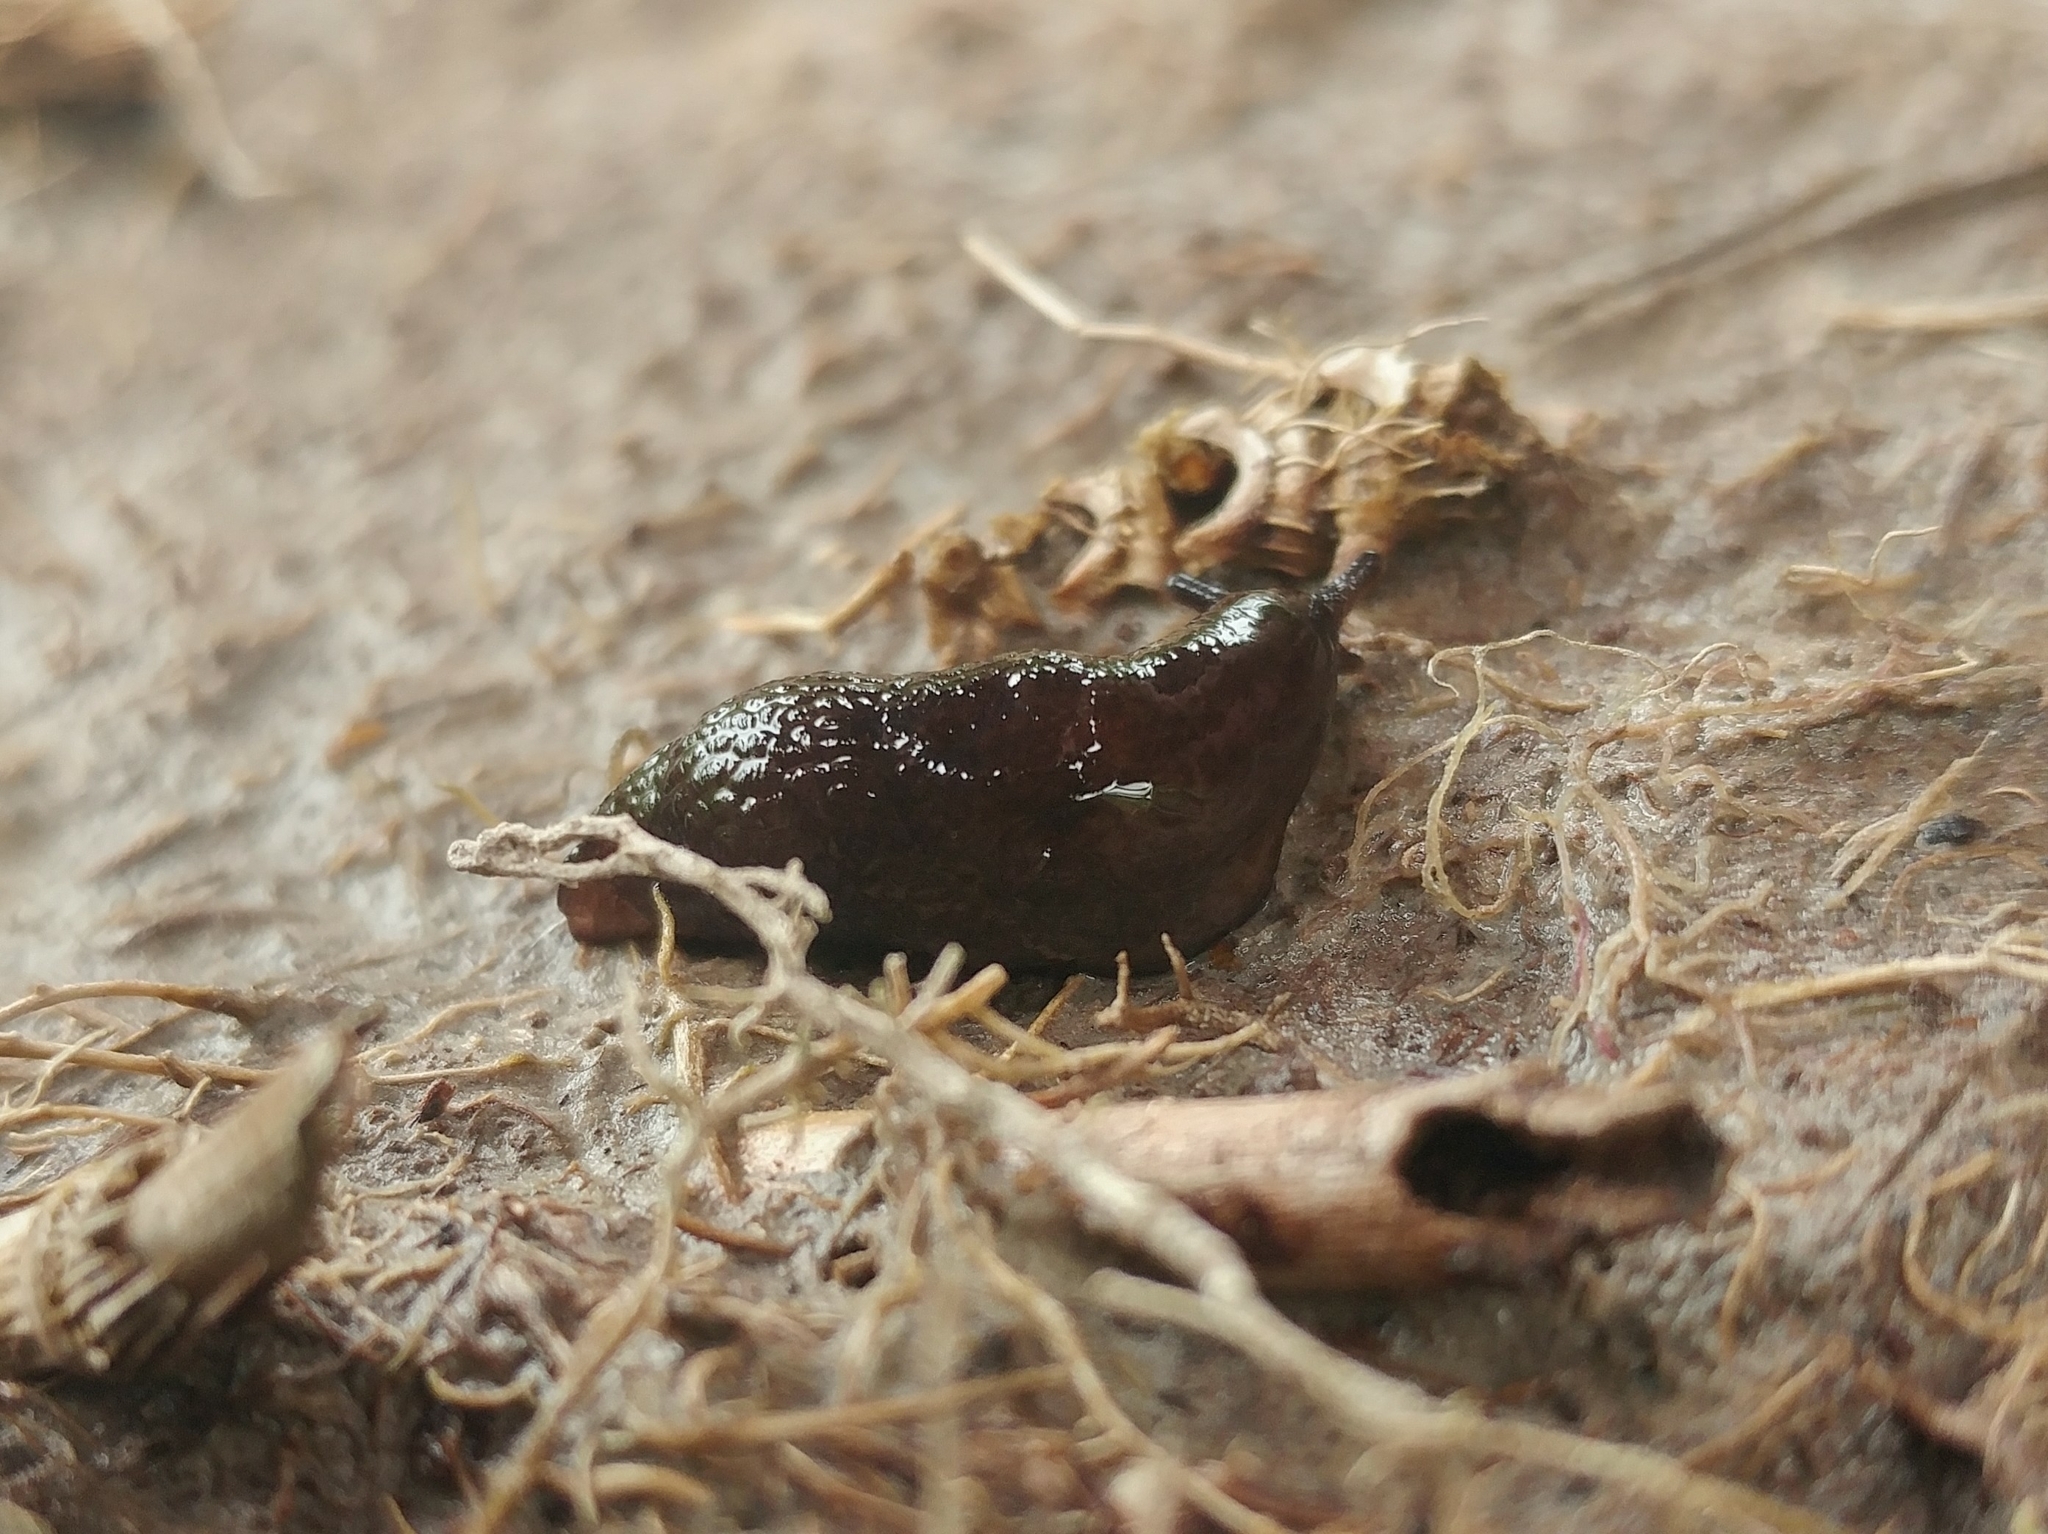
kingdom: Animalia
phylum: Mollusca
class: Gastropoda
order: Stylommatophora
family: Agriolimacidae
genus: Deroceras
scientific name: Deroceras laeve
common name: Marsh slug
